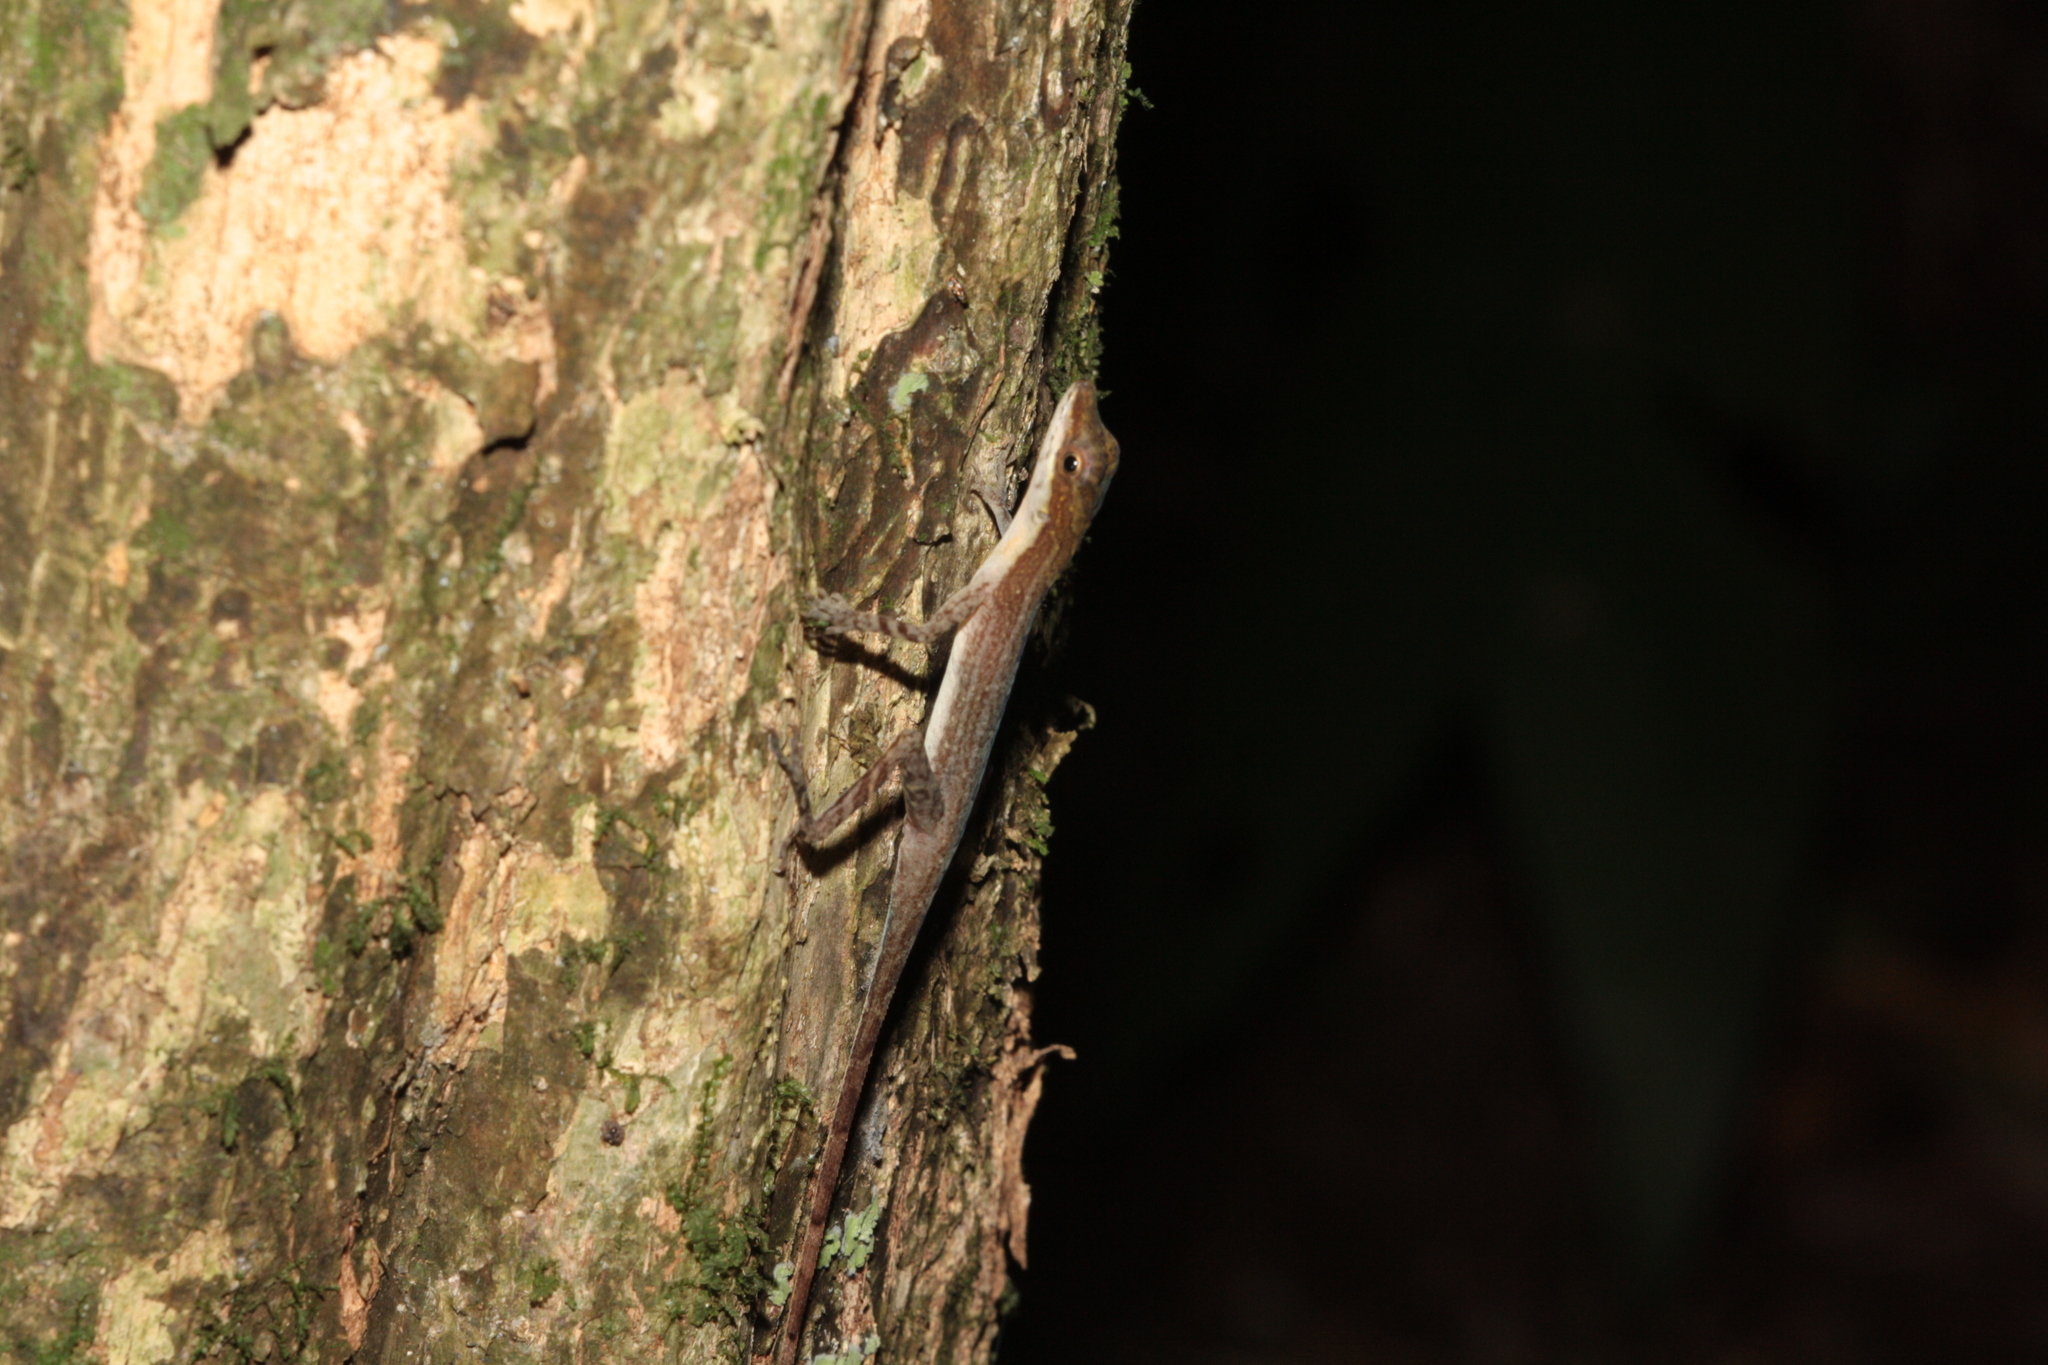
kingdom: Animalia
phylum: Chordata
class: Squamata
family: Dactyloidae
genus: Anolis
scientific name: Anolis limifrons
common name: Border anole
